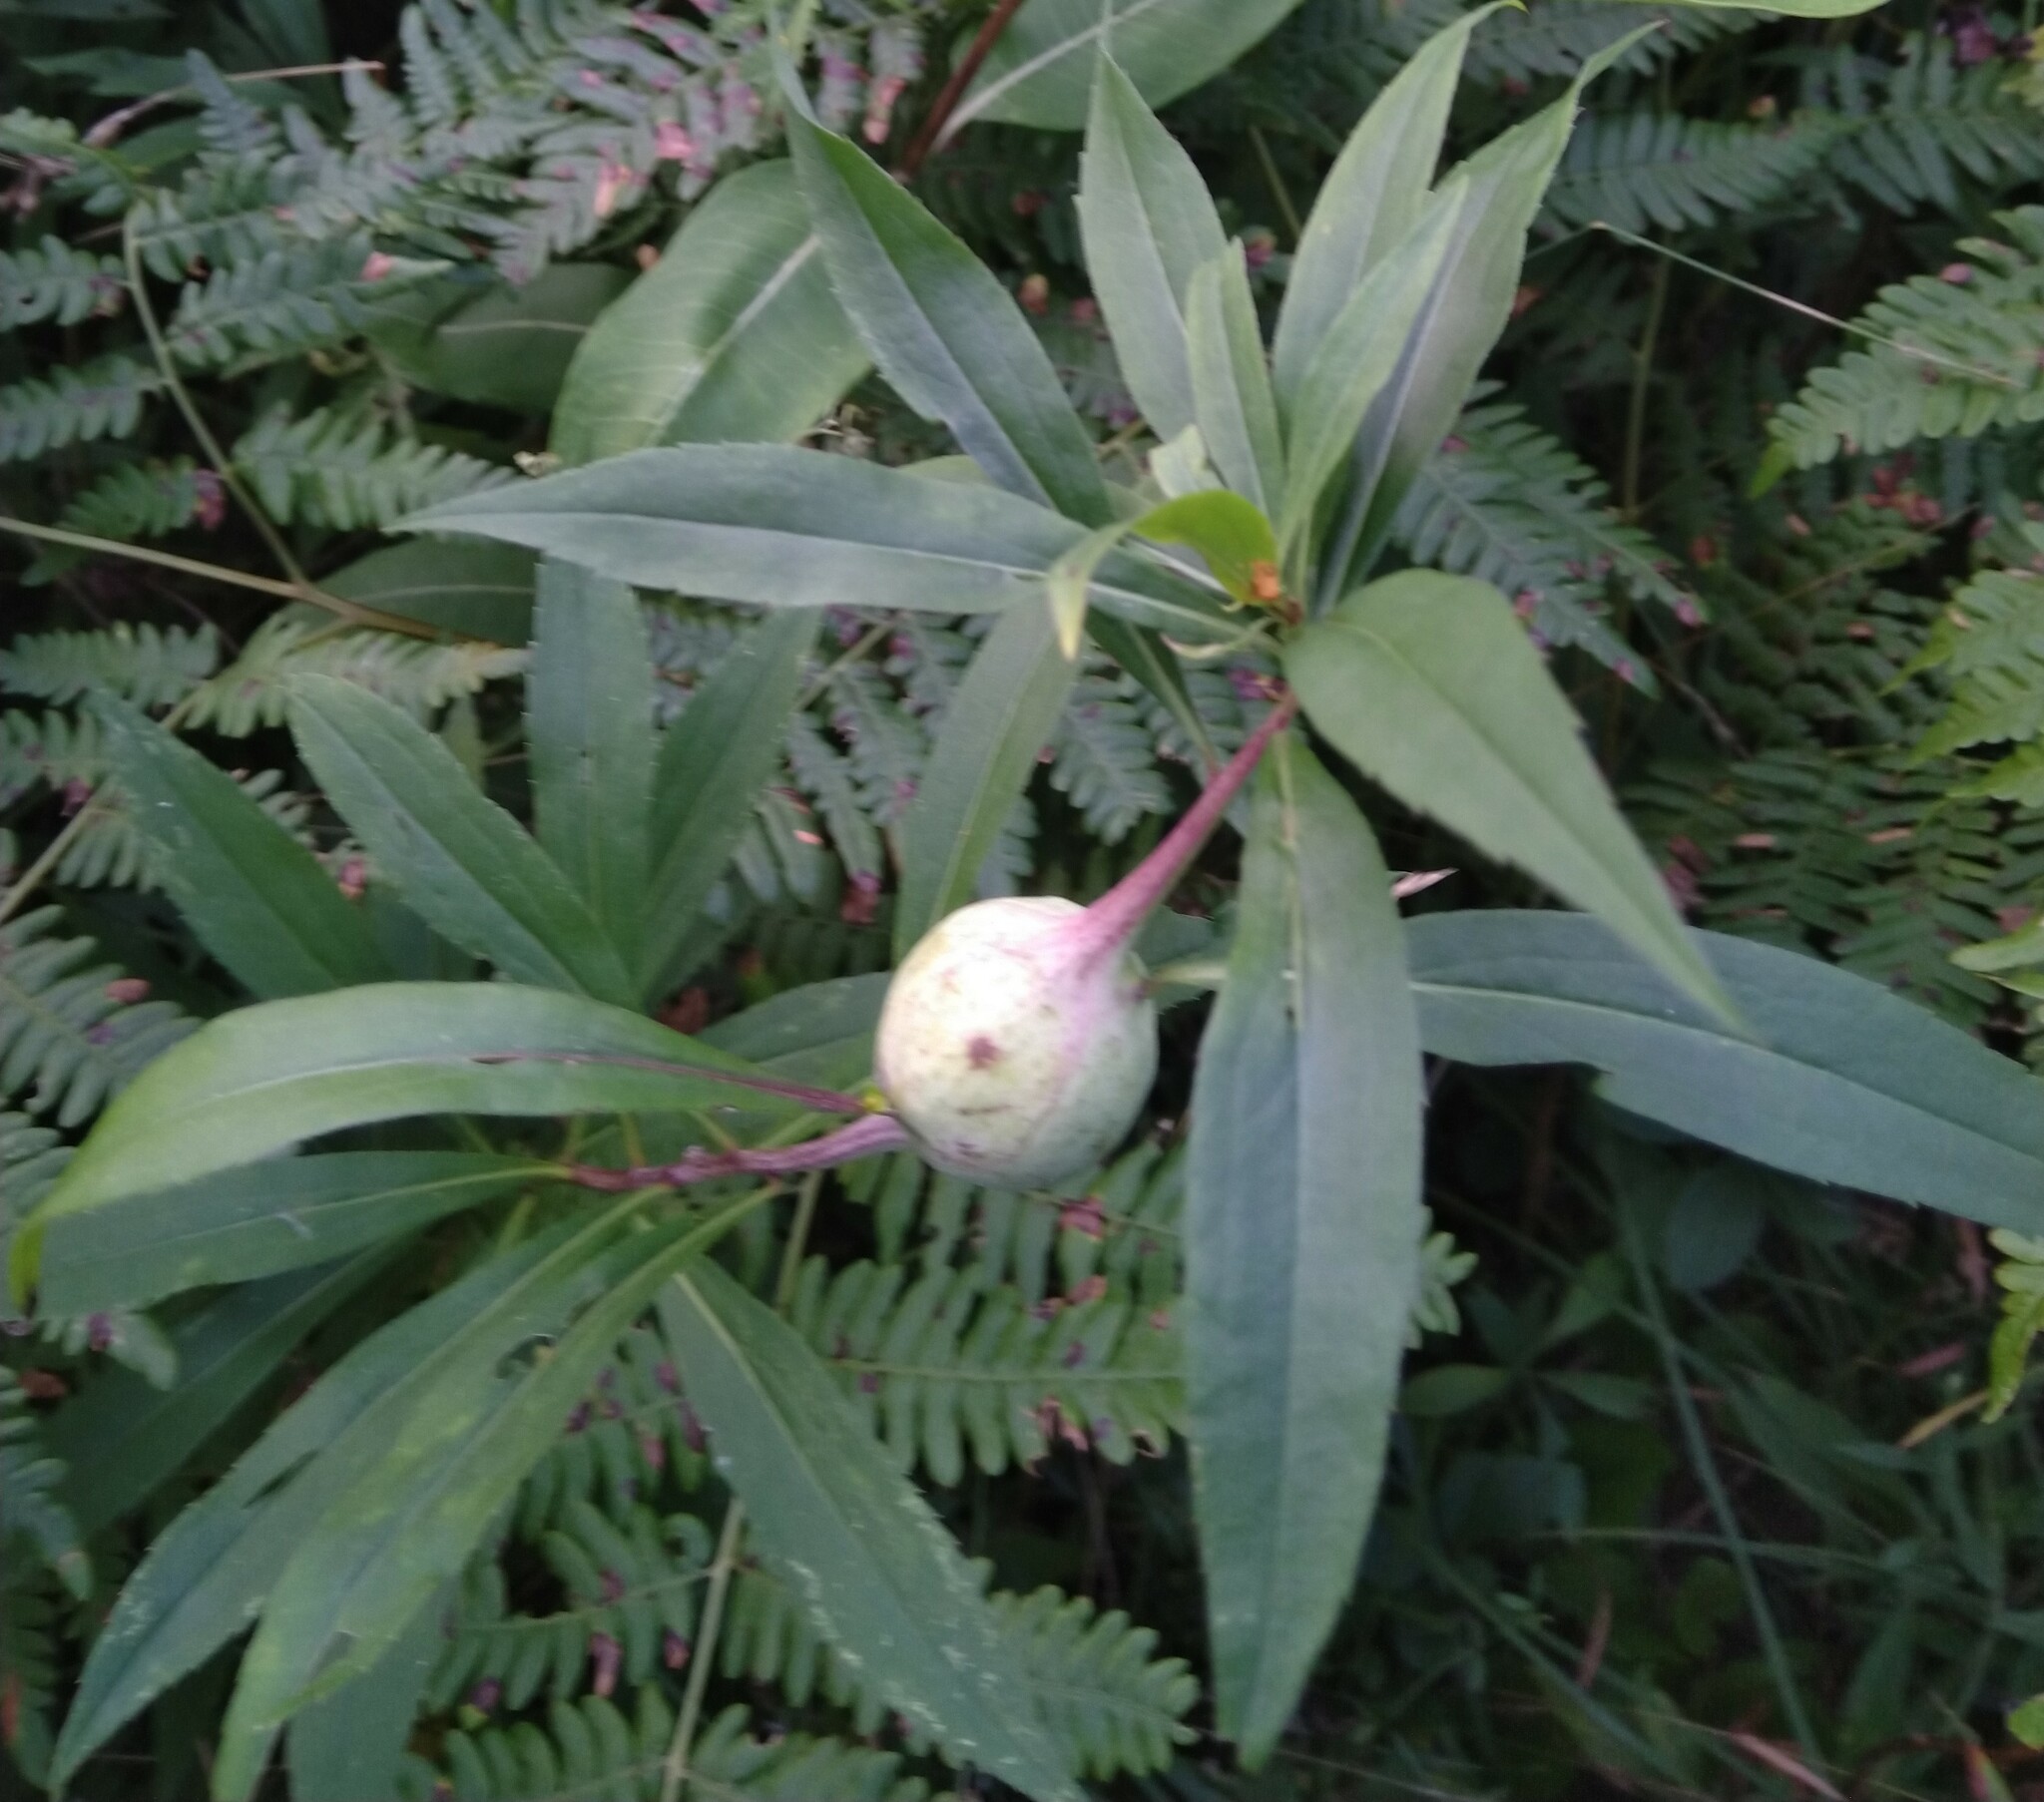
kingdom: Animalia
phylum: Arthropoda
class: Insecta
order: Diptera
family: Tephritidae
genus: Eurosta
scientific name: Eurosta solidaginis
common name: Goldenrod gall fly
